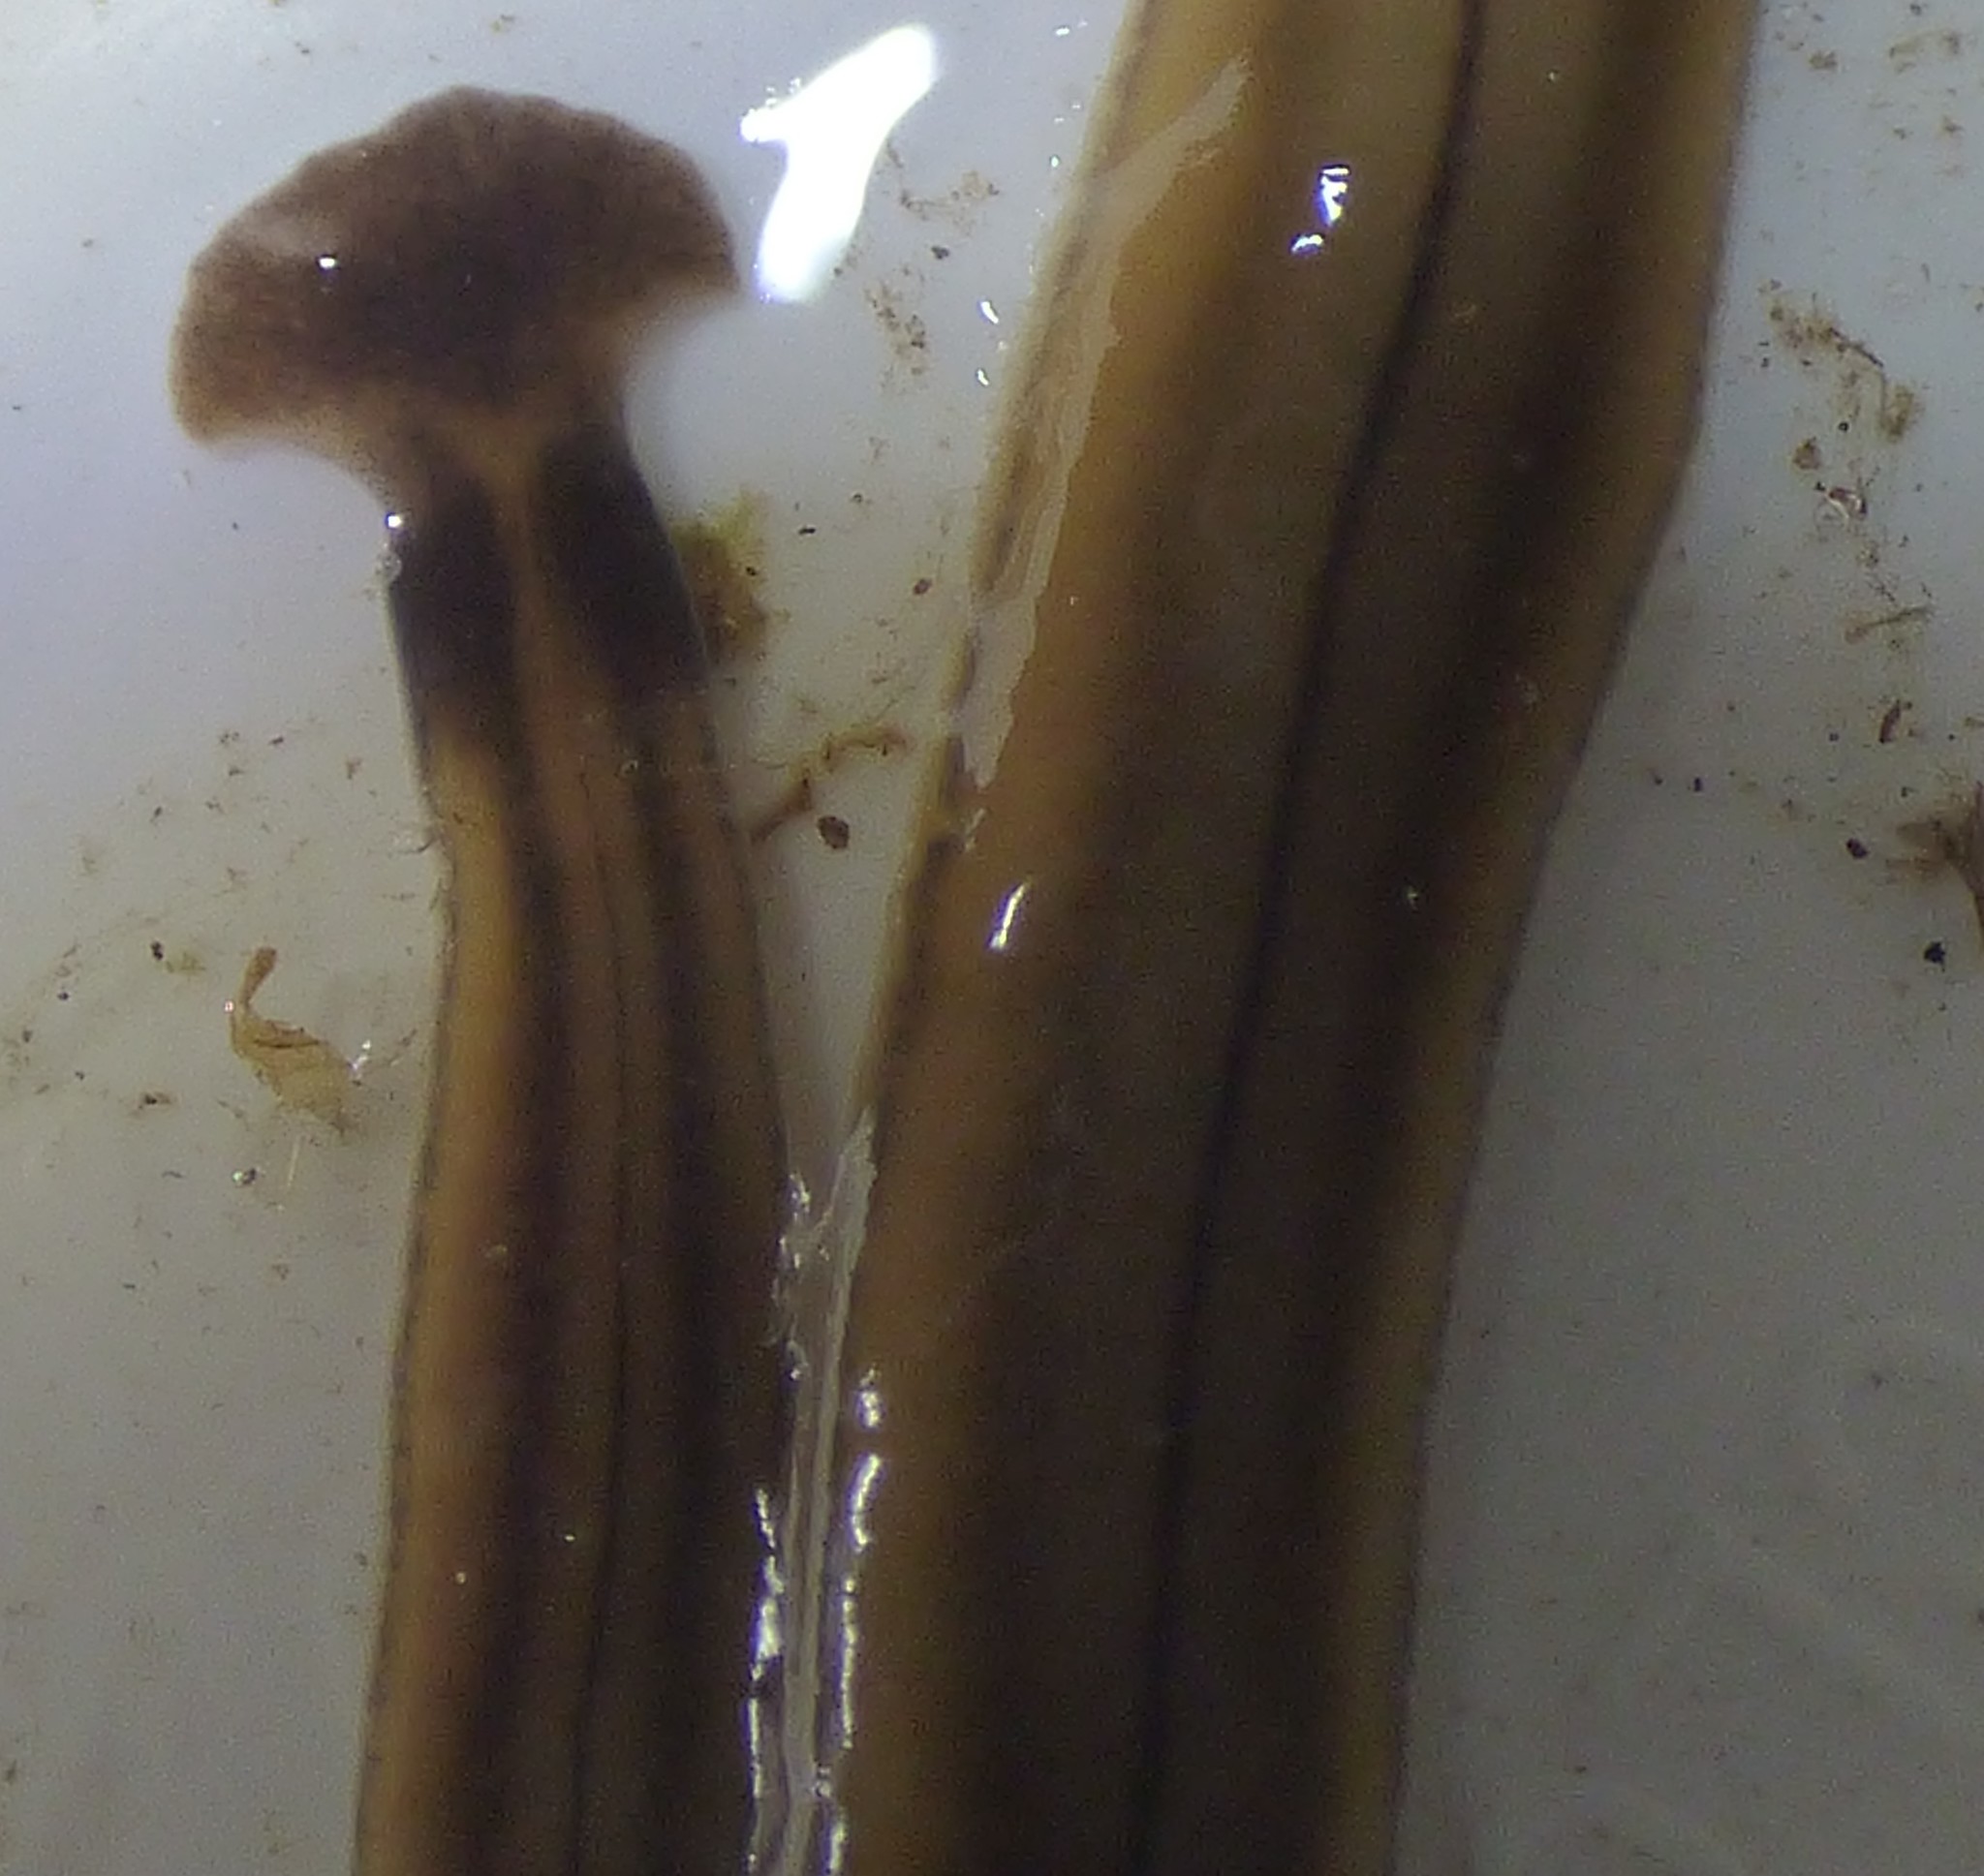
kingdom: Animalia
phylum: Platyhelminthes
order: Tricladida
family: Geoplanidae
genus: Bipalium
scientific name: Bipalium kewense
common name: Hammerhead flatworm
